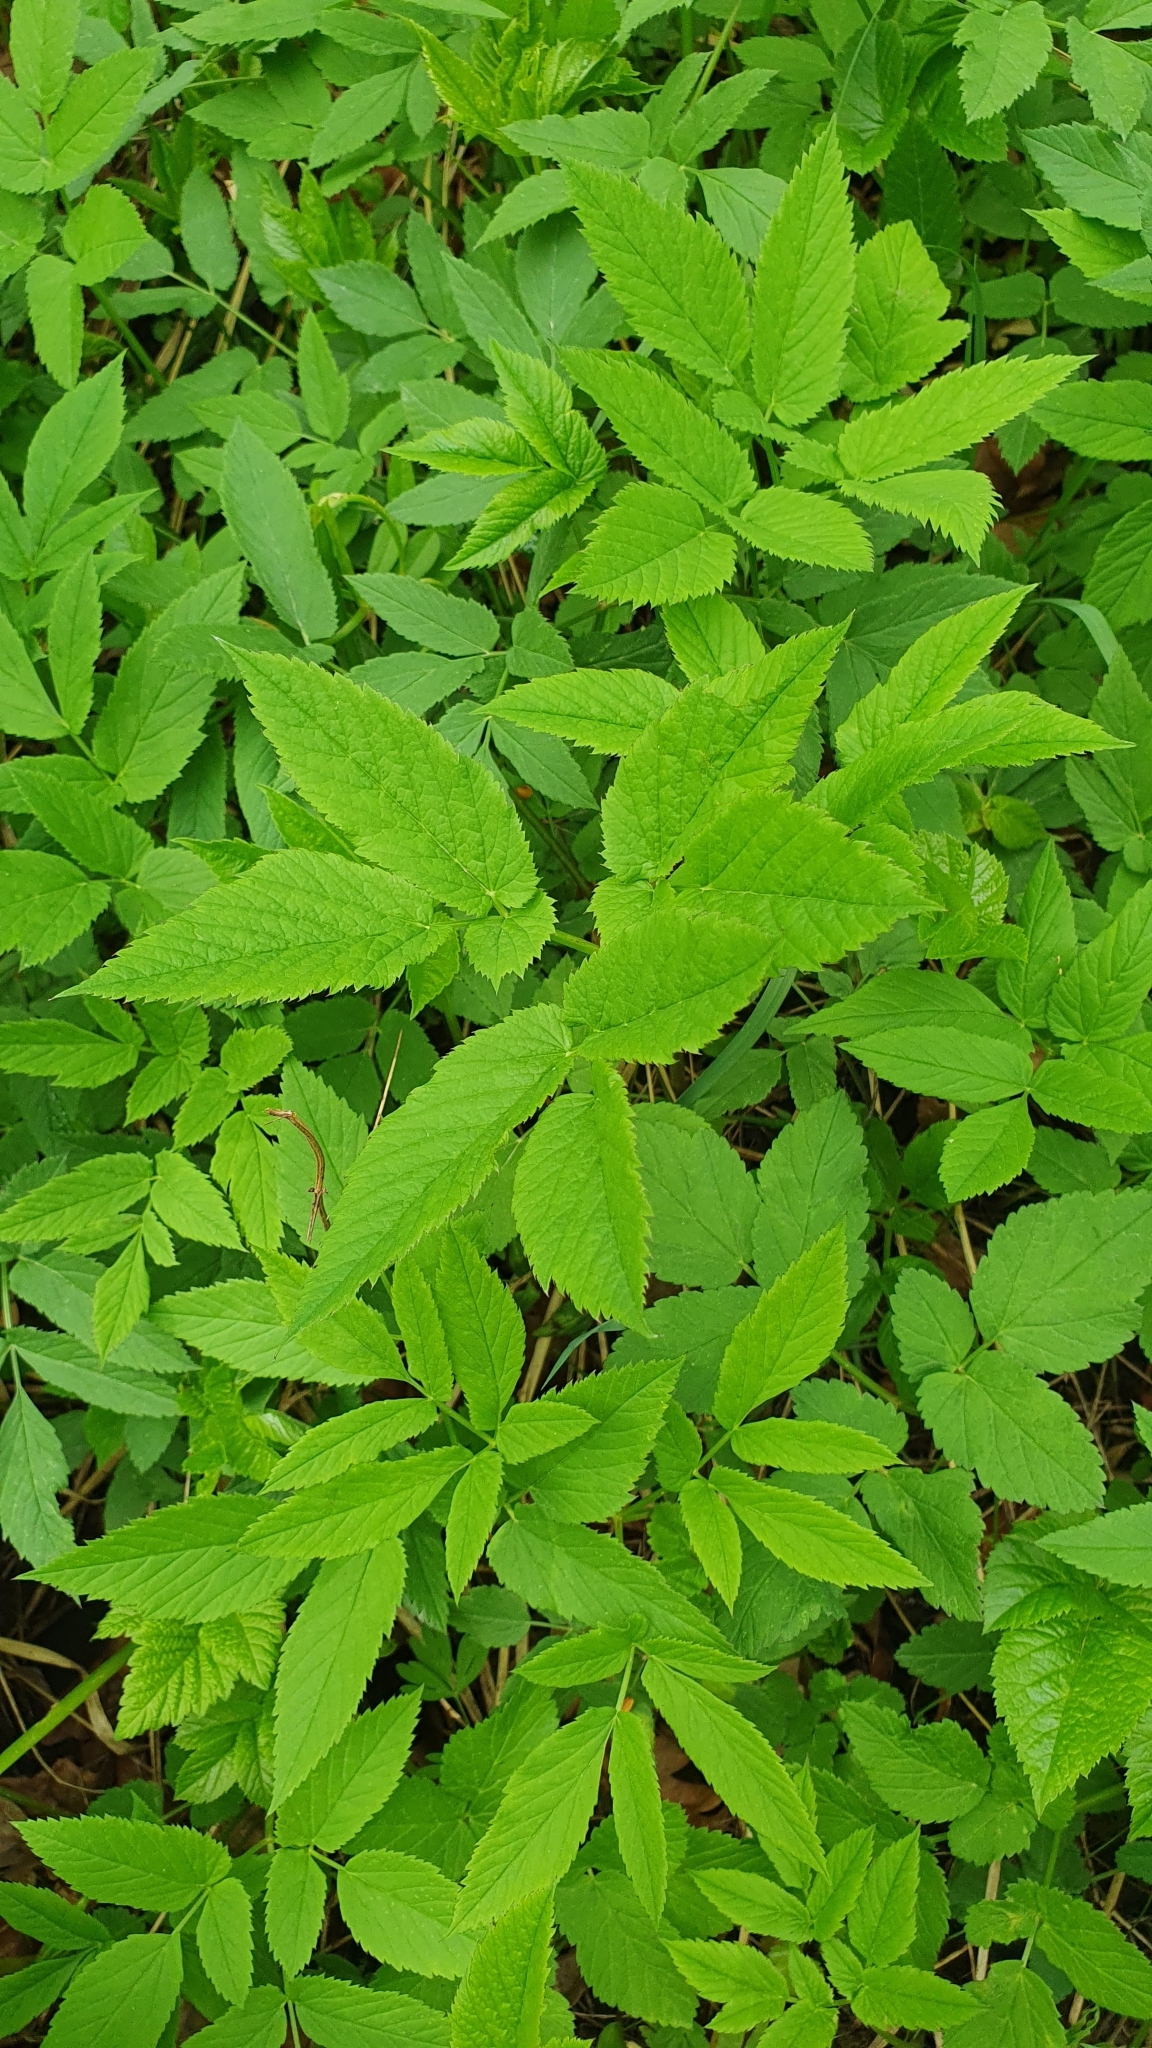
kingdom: Plantae
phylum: Tracheophyta
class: Magnoliopsida
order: Apiales
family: Apiaceae
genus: Aegopodium
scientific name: Aegopodium podagraria
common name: Ground-elder
